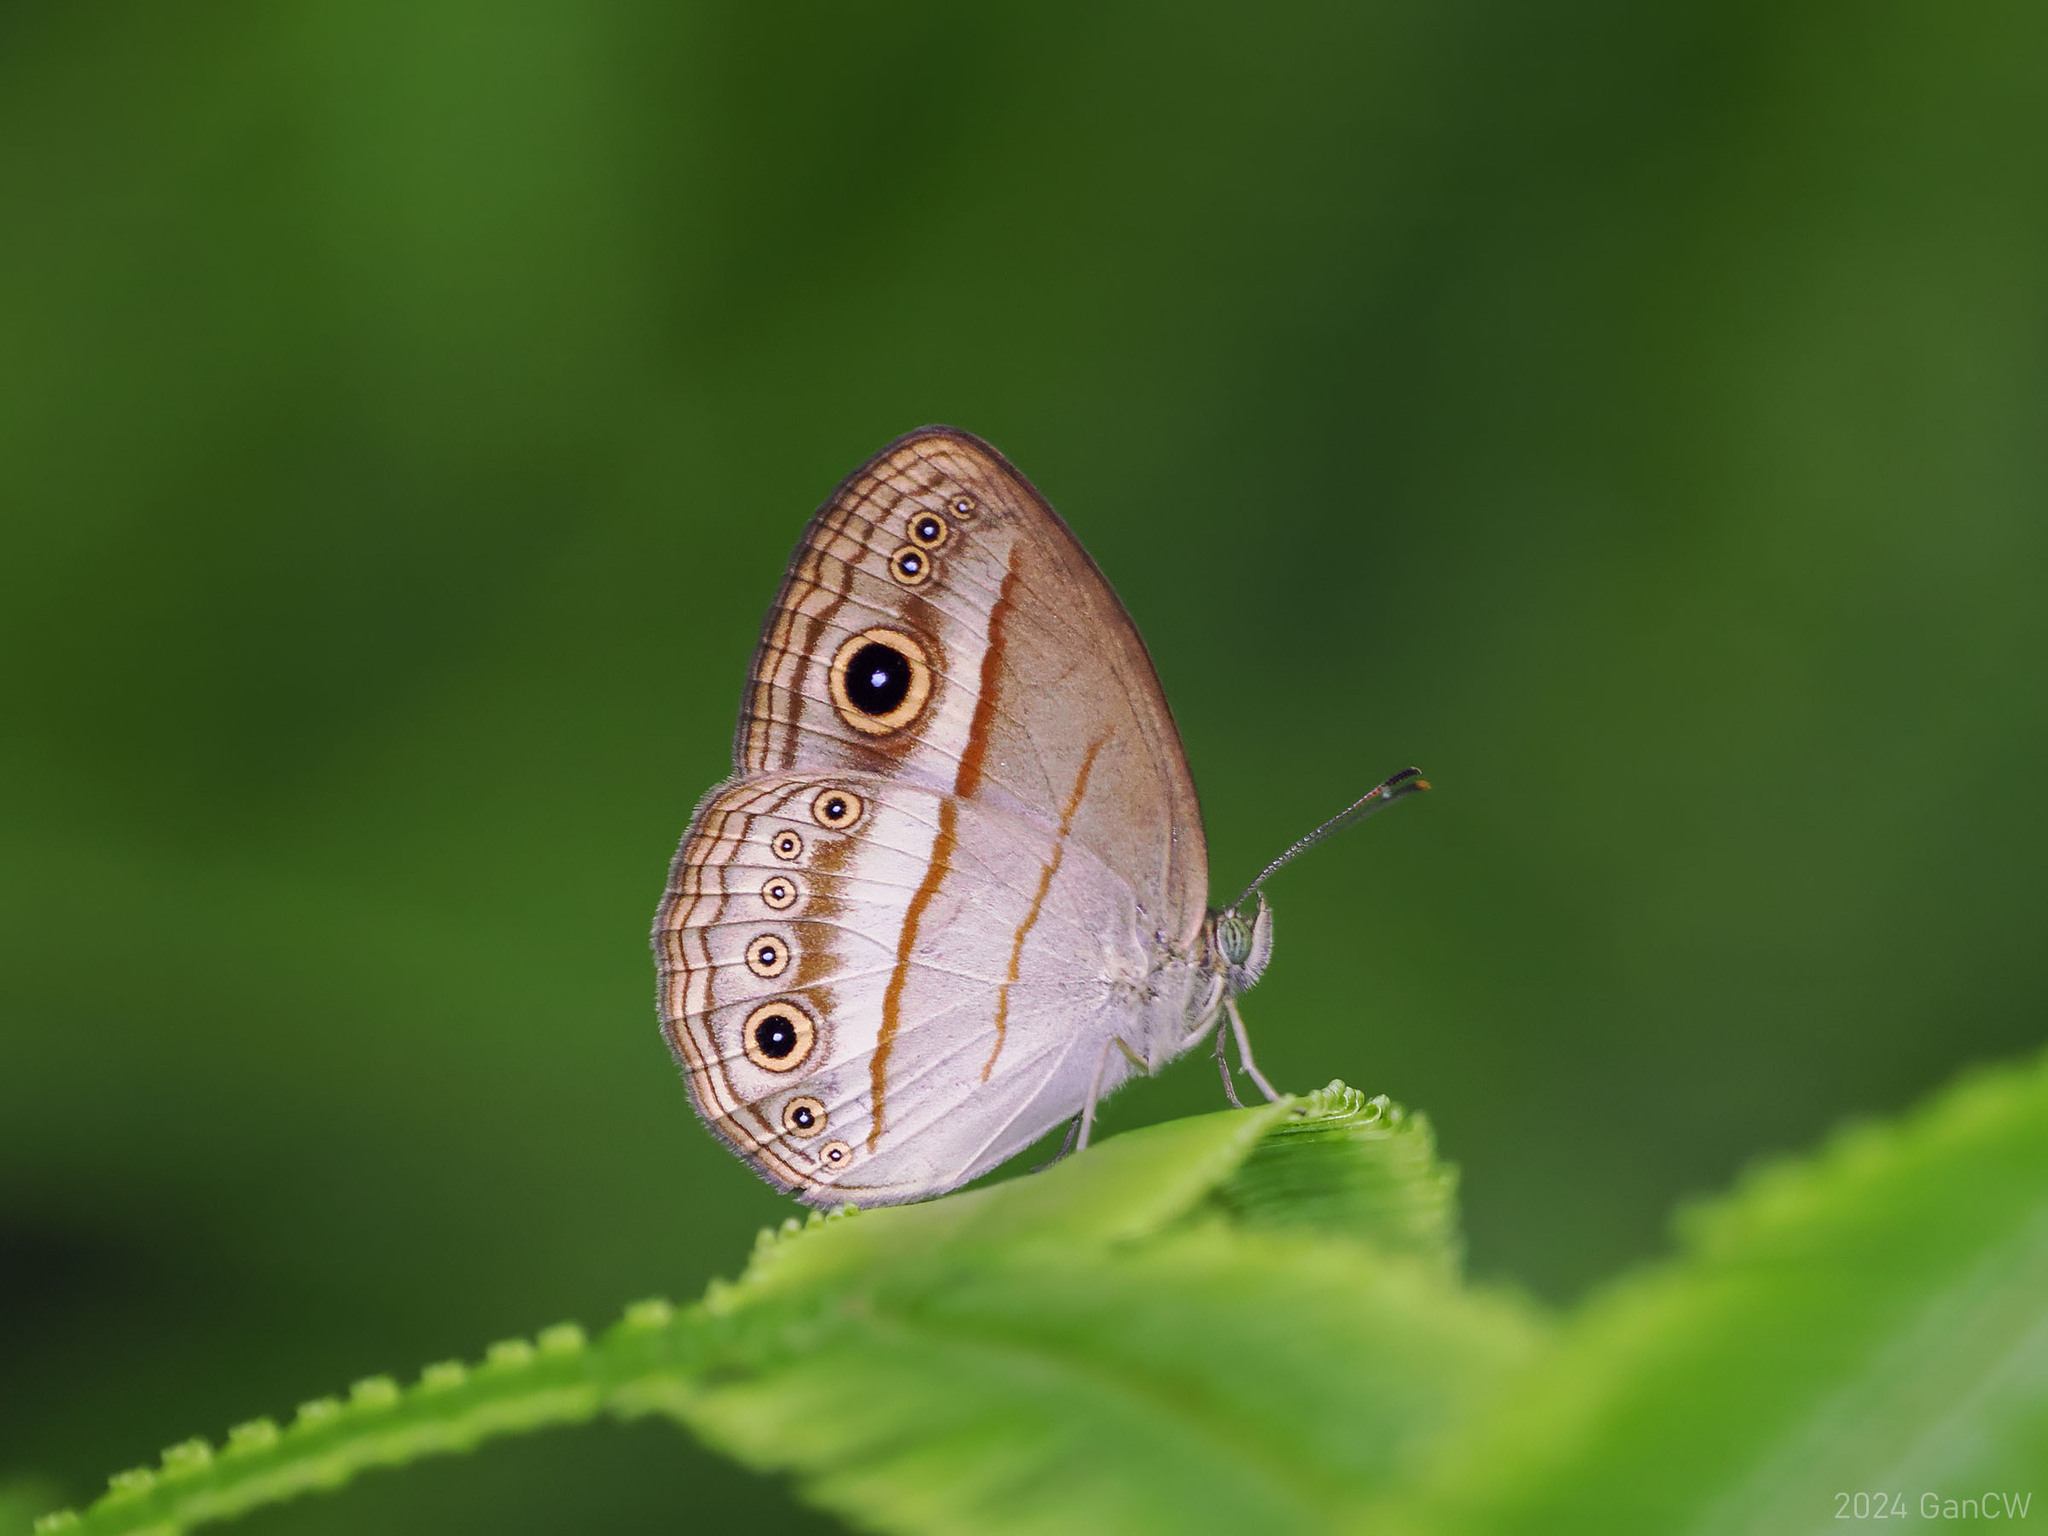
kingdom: Animalia
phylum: Arthropoda
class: Insecta
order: Lepidoptera
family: Nymphalidae
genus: Mycalesis
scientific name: Mycalesis ita
